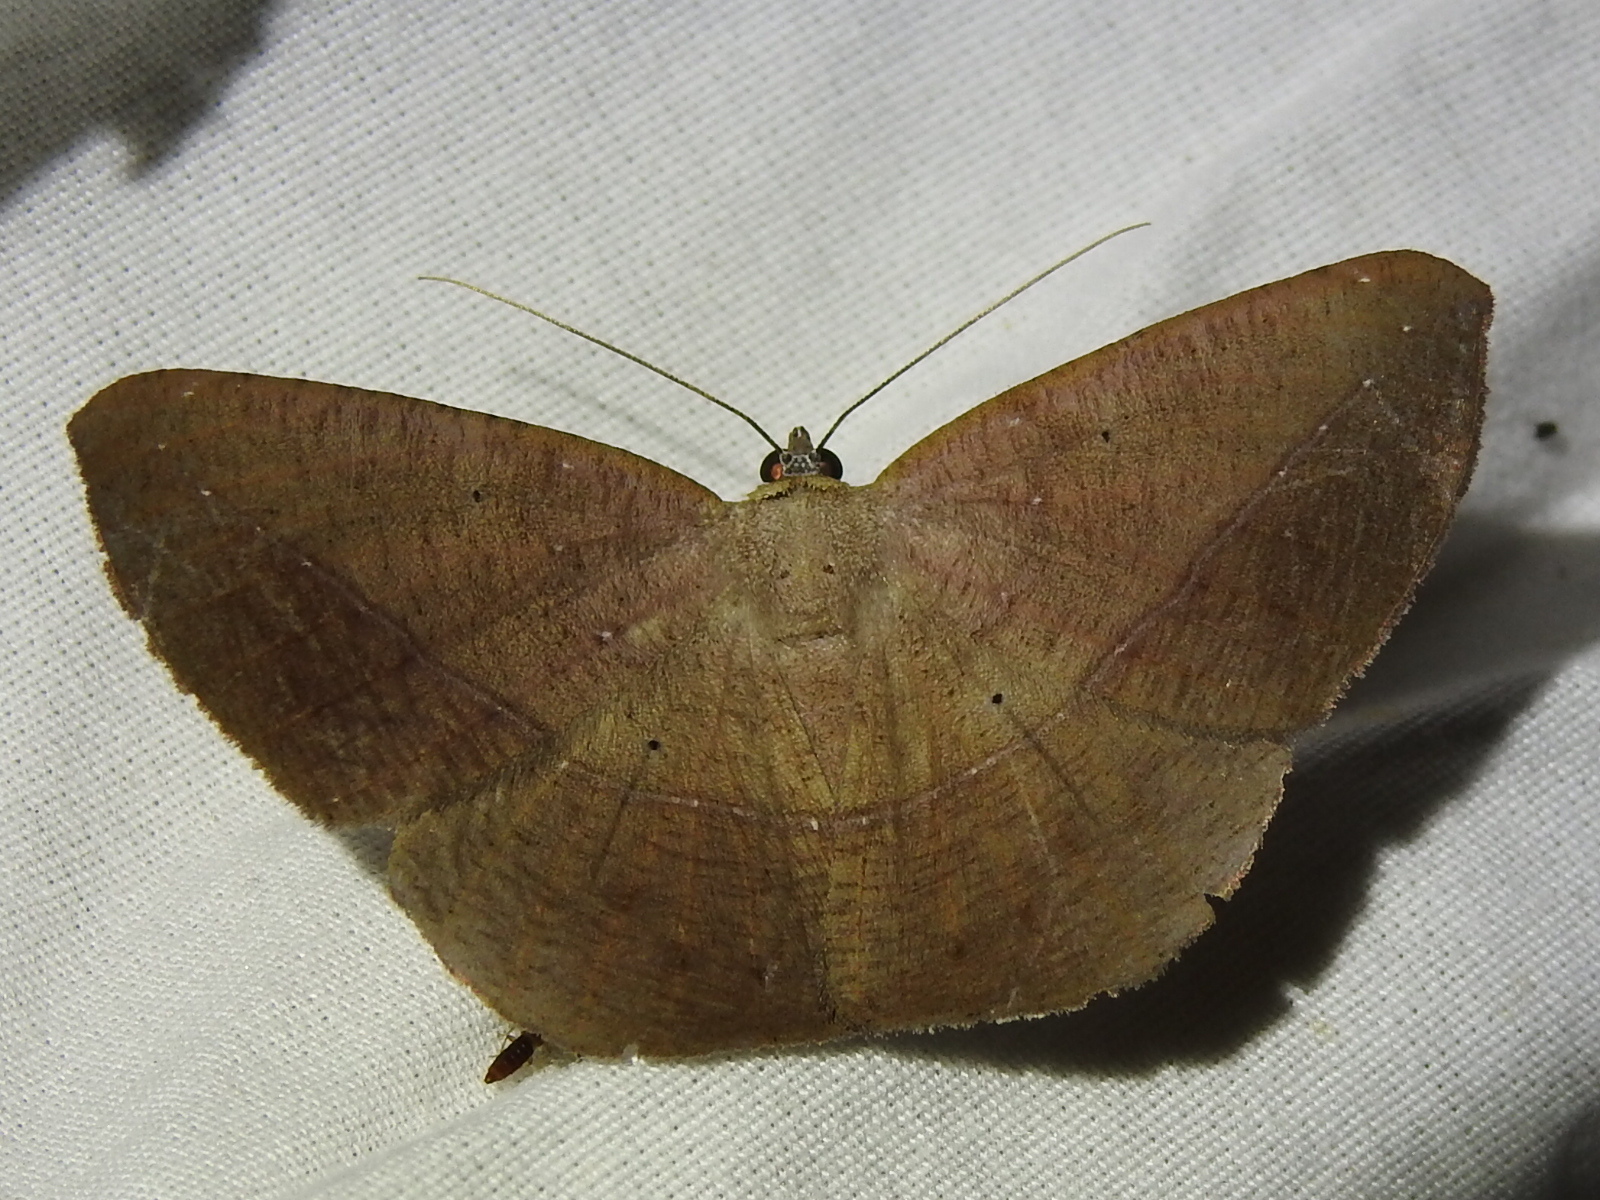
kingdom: Animalia
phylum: Arthropoda
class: Insecta
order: Lepidoptera
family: Geometridae
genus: Prochoerodes
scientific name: Prochoerodes olivata
